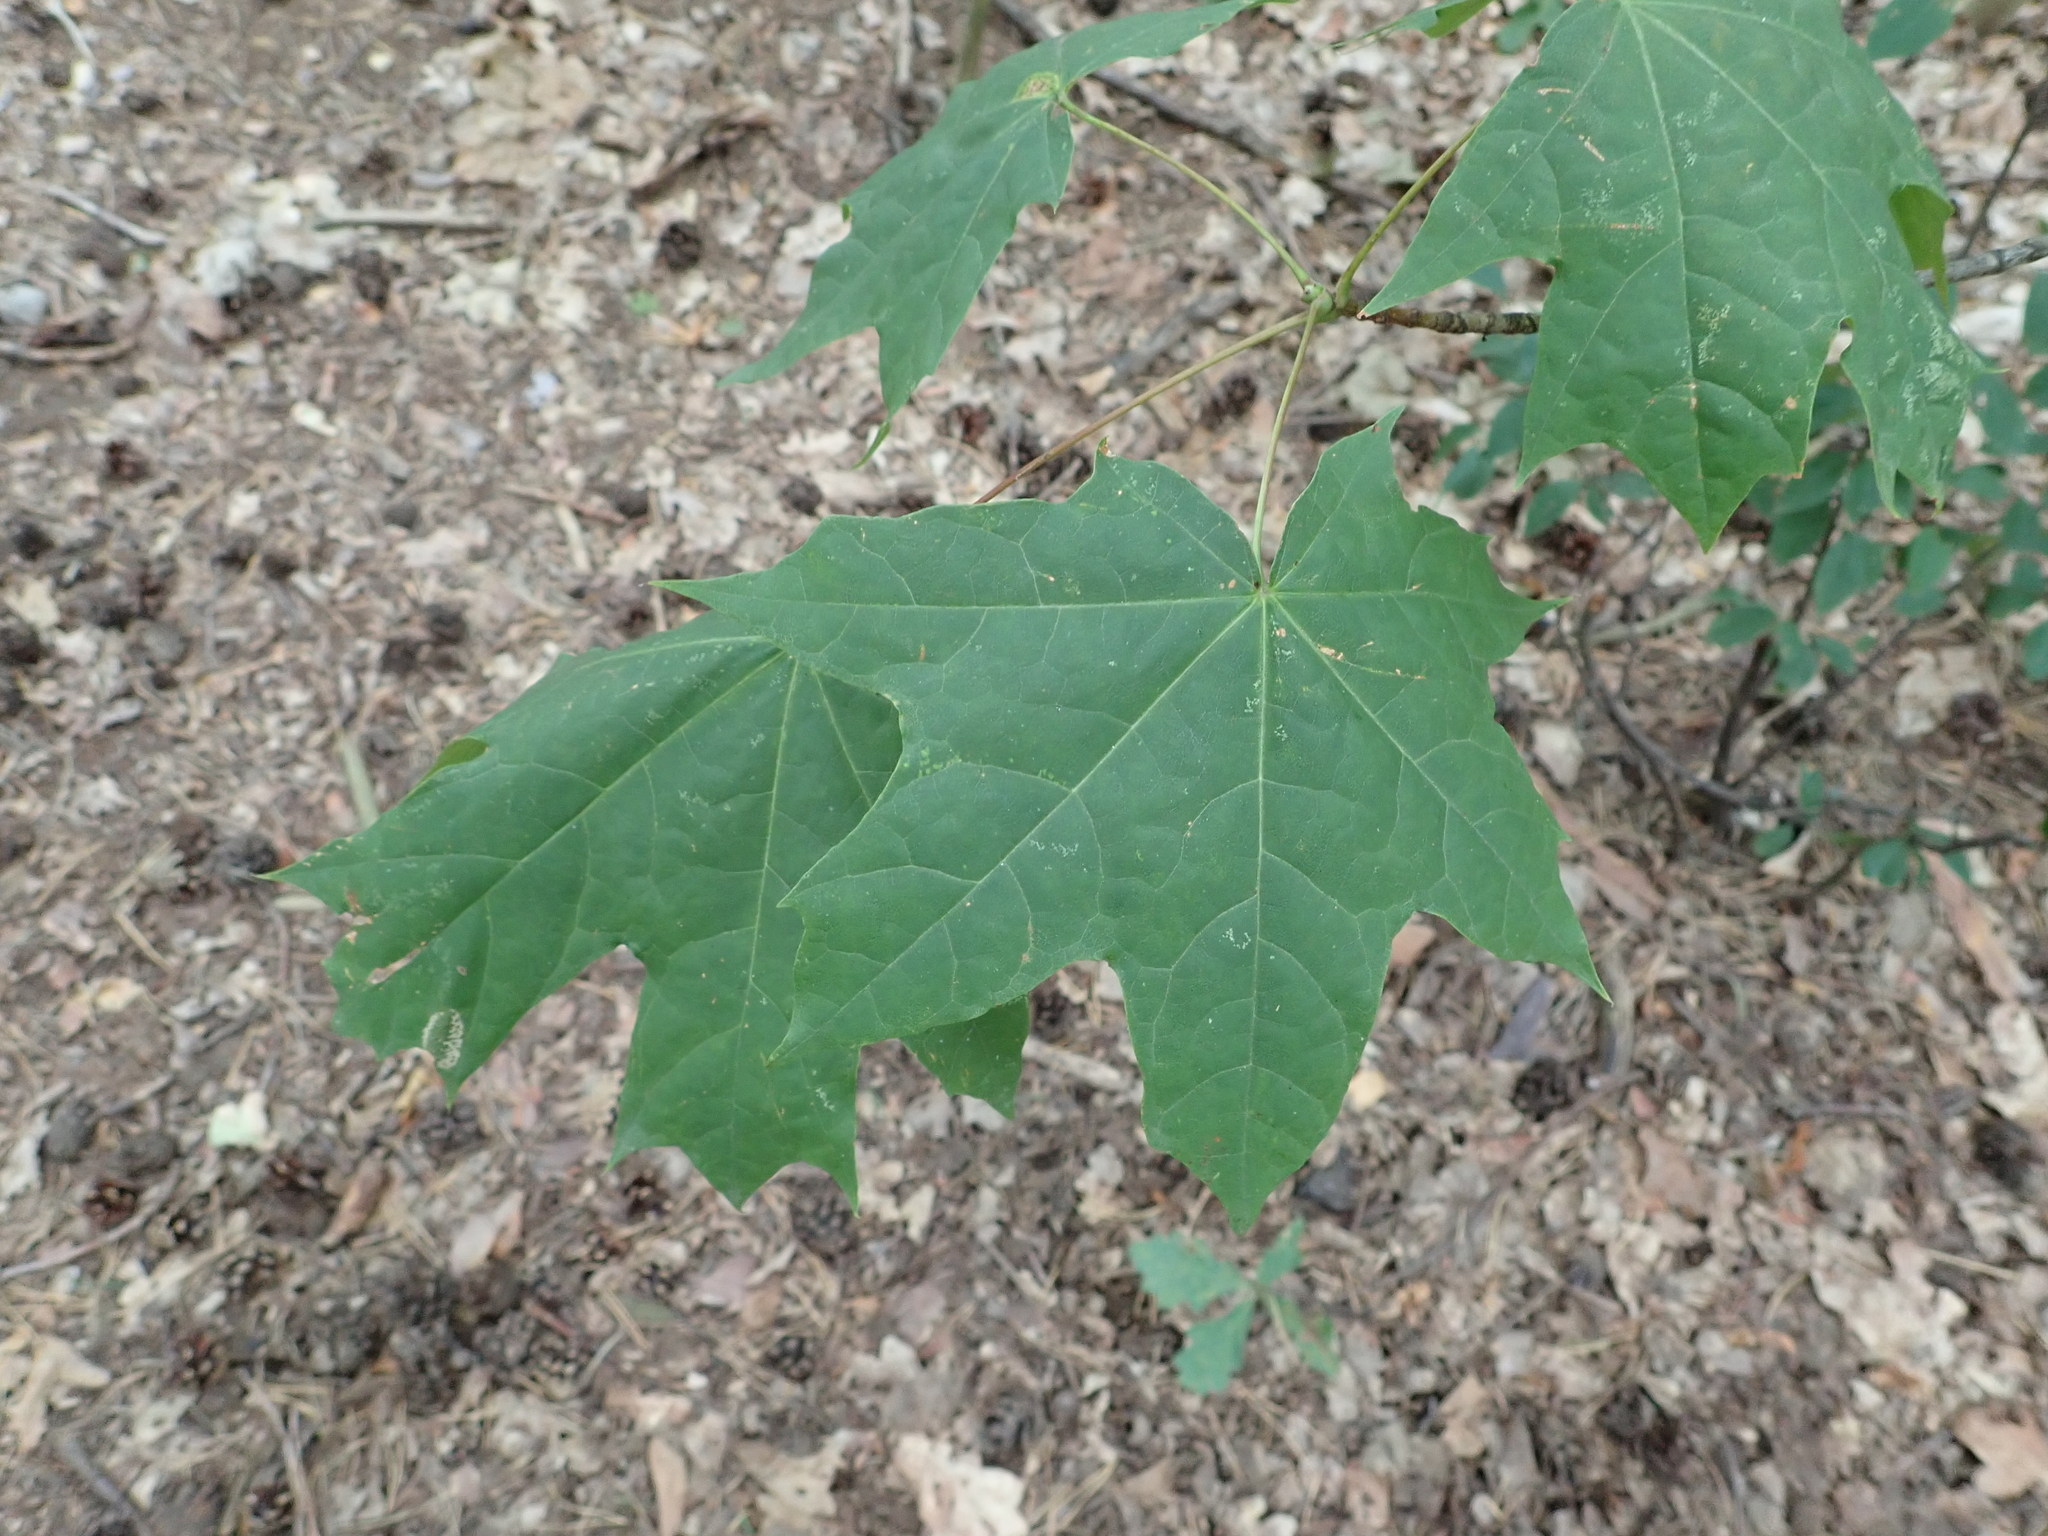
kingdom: Plantae
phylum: Tracheophyta
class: Magnoliopsida
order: Sapindales
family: Sapindaceae
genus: Acer
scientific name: Acer platanoides
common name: Norway maple
